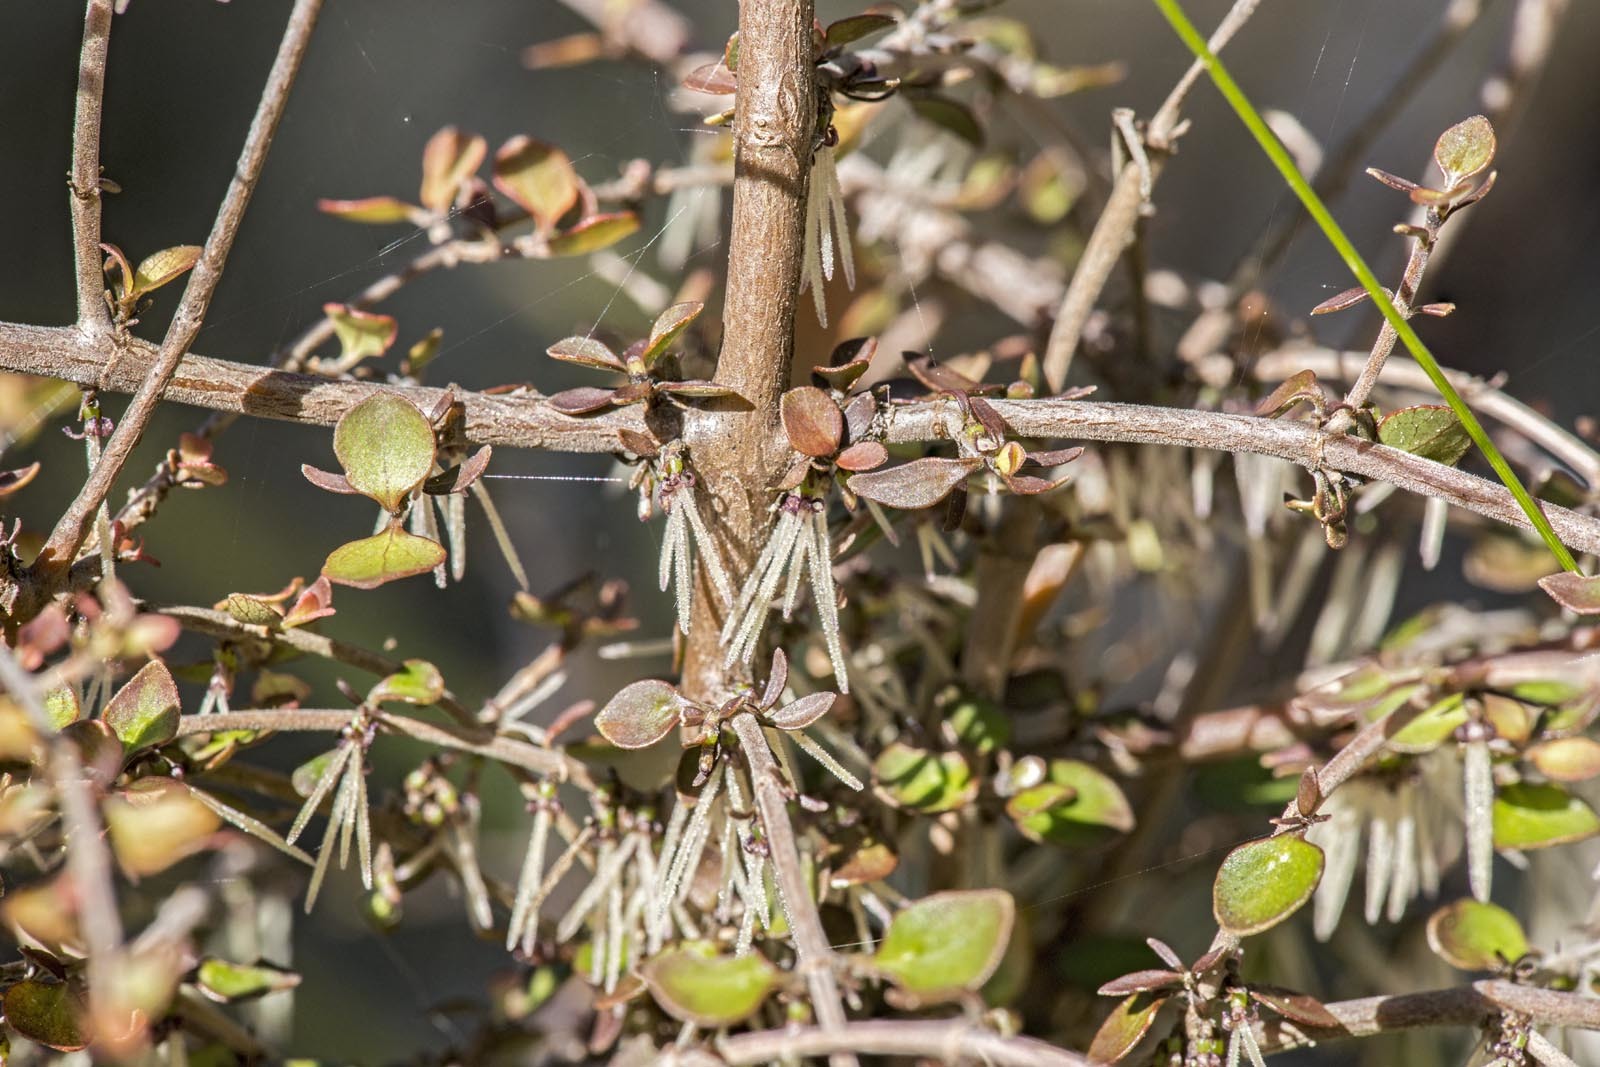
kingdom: Plantae
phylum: Tracheophyta
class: Magnoliopsida
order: Gentianales
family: Rubiaceae
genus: Coprosma
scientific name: Coprosma rhamnoides
